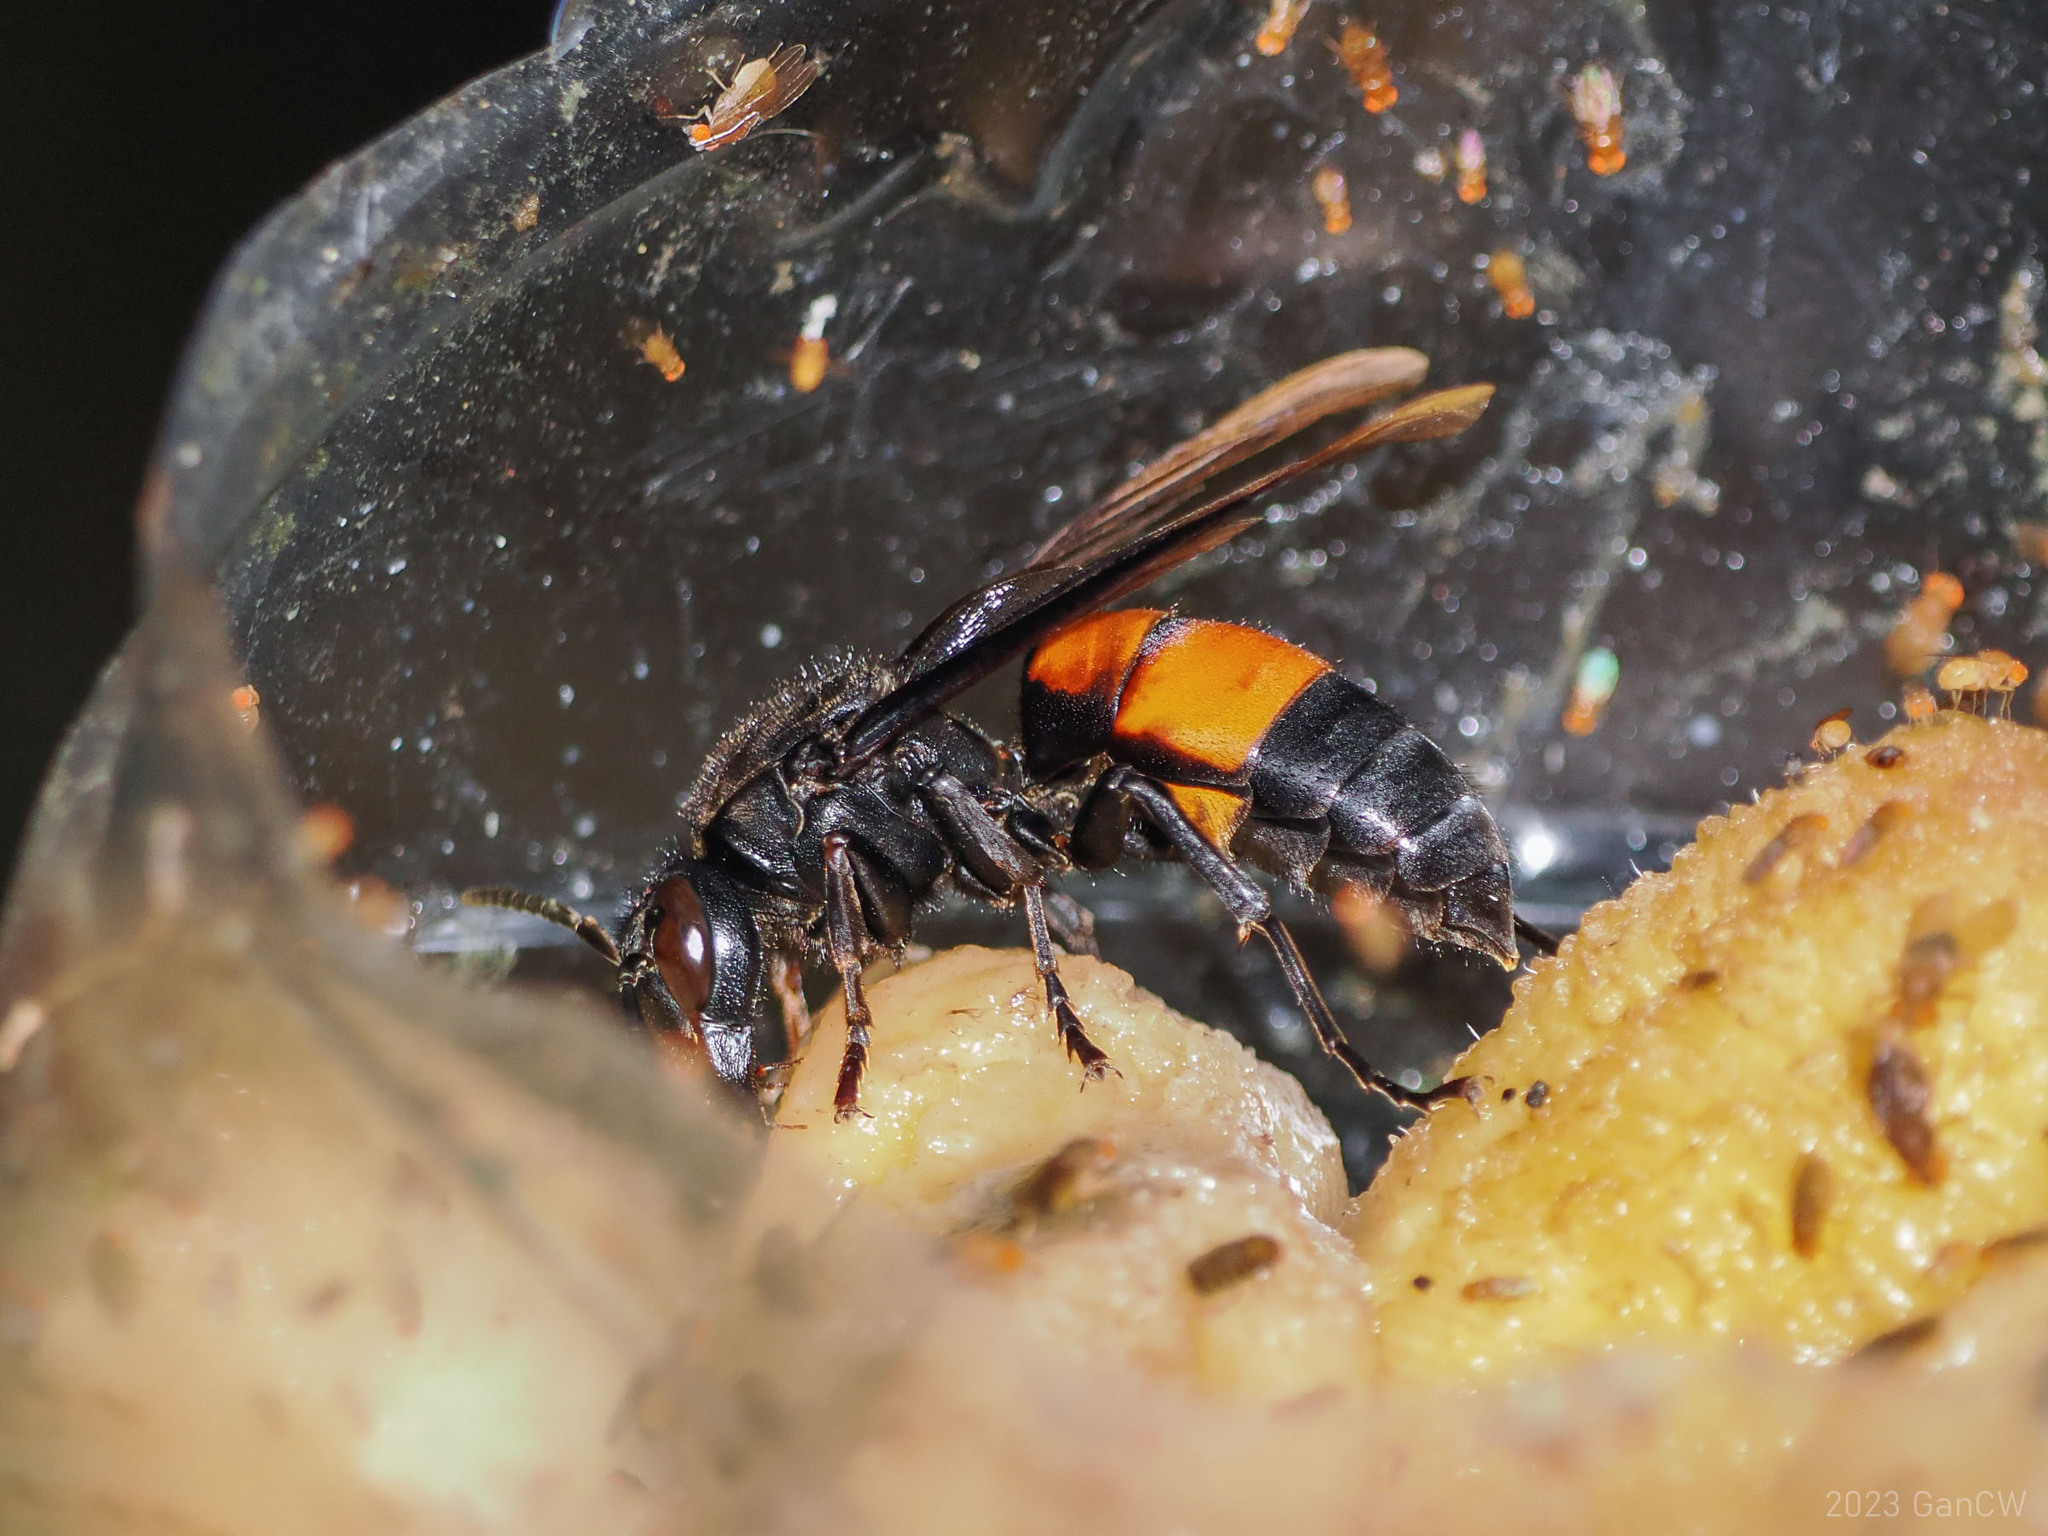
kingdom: Animalia
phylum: Arthropoda
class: Insecta
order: Hymenoptera
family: Vespidae
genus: Vespa
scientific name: Vespa affinis
